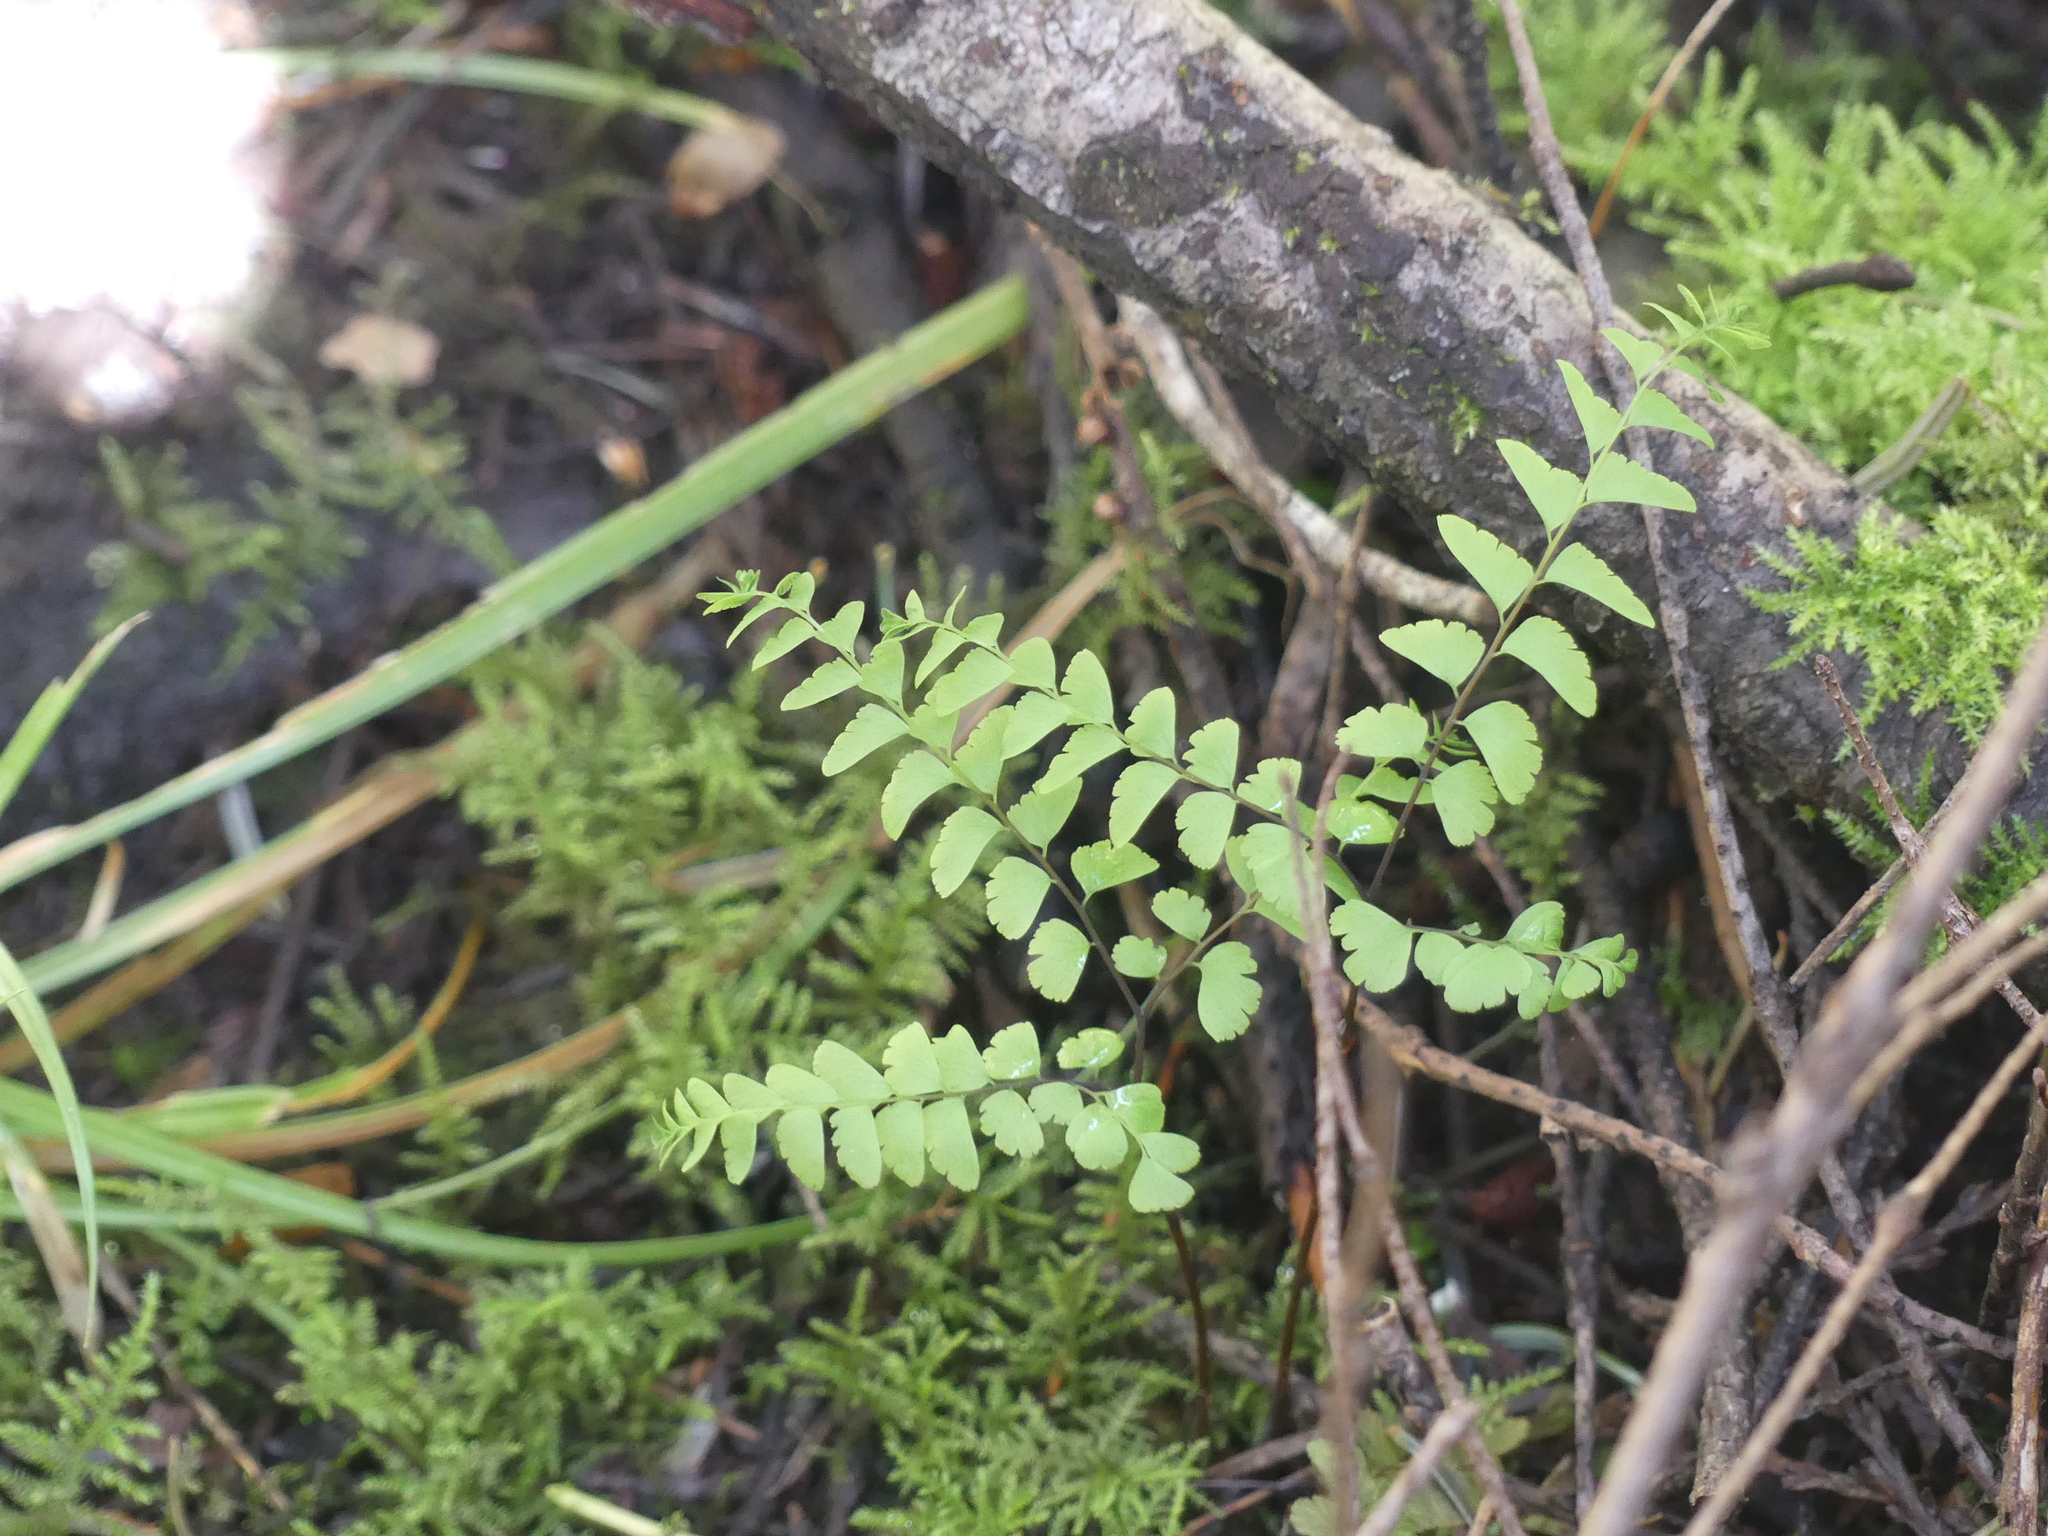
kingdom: Plantae
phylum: Tracheophyta
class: Polypodiopsida
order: Polypodiales
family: Pteridaceae
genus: Adiantum
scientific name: Adiantum aleuticum
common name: Aleutian maidenhair fern
